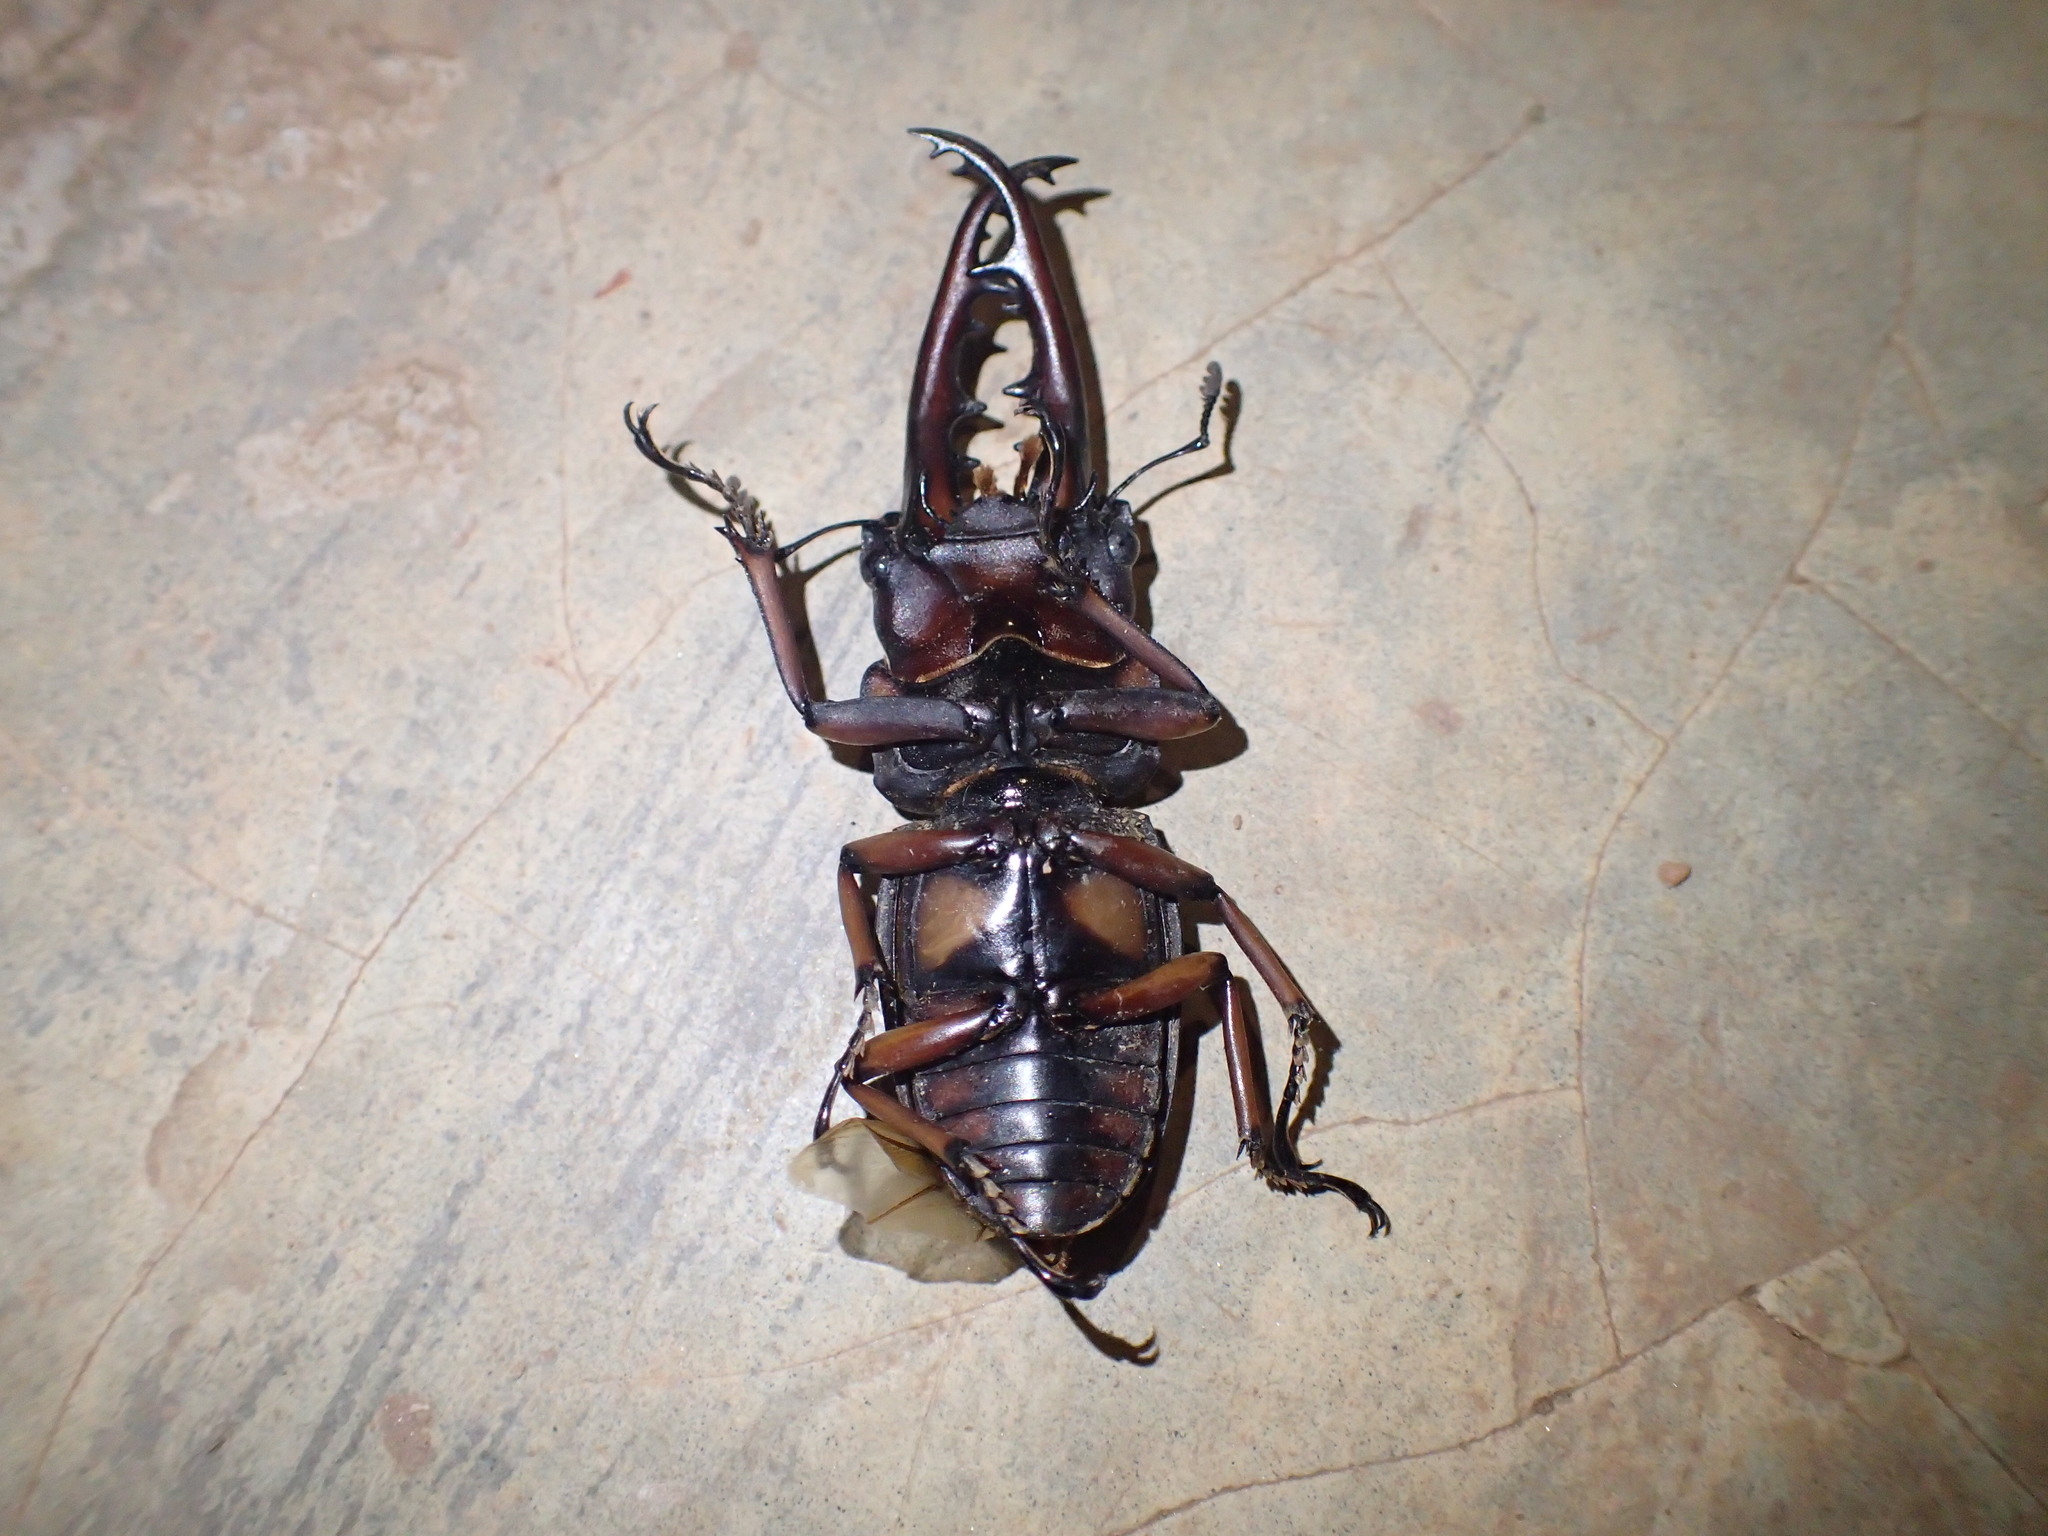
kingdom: Animalia
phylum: Arthropoda
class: Insecta
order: Coleoptera
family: Lucanidae
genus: Prosopocoilus
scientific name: Prosopocoilus
